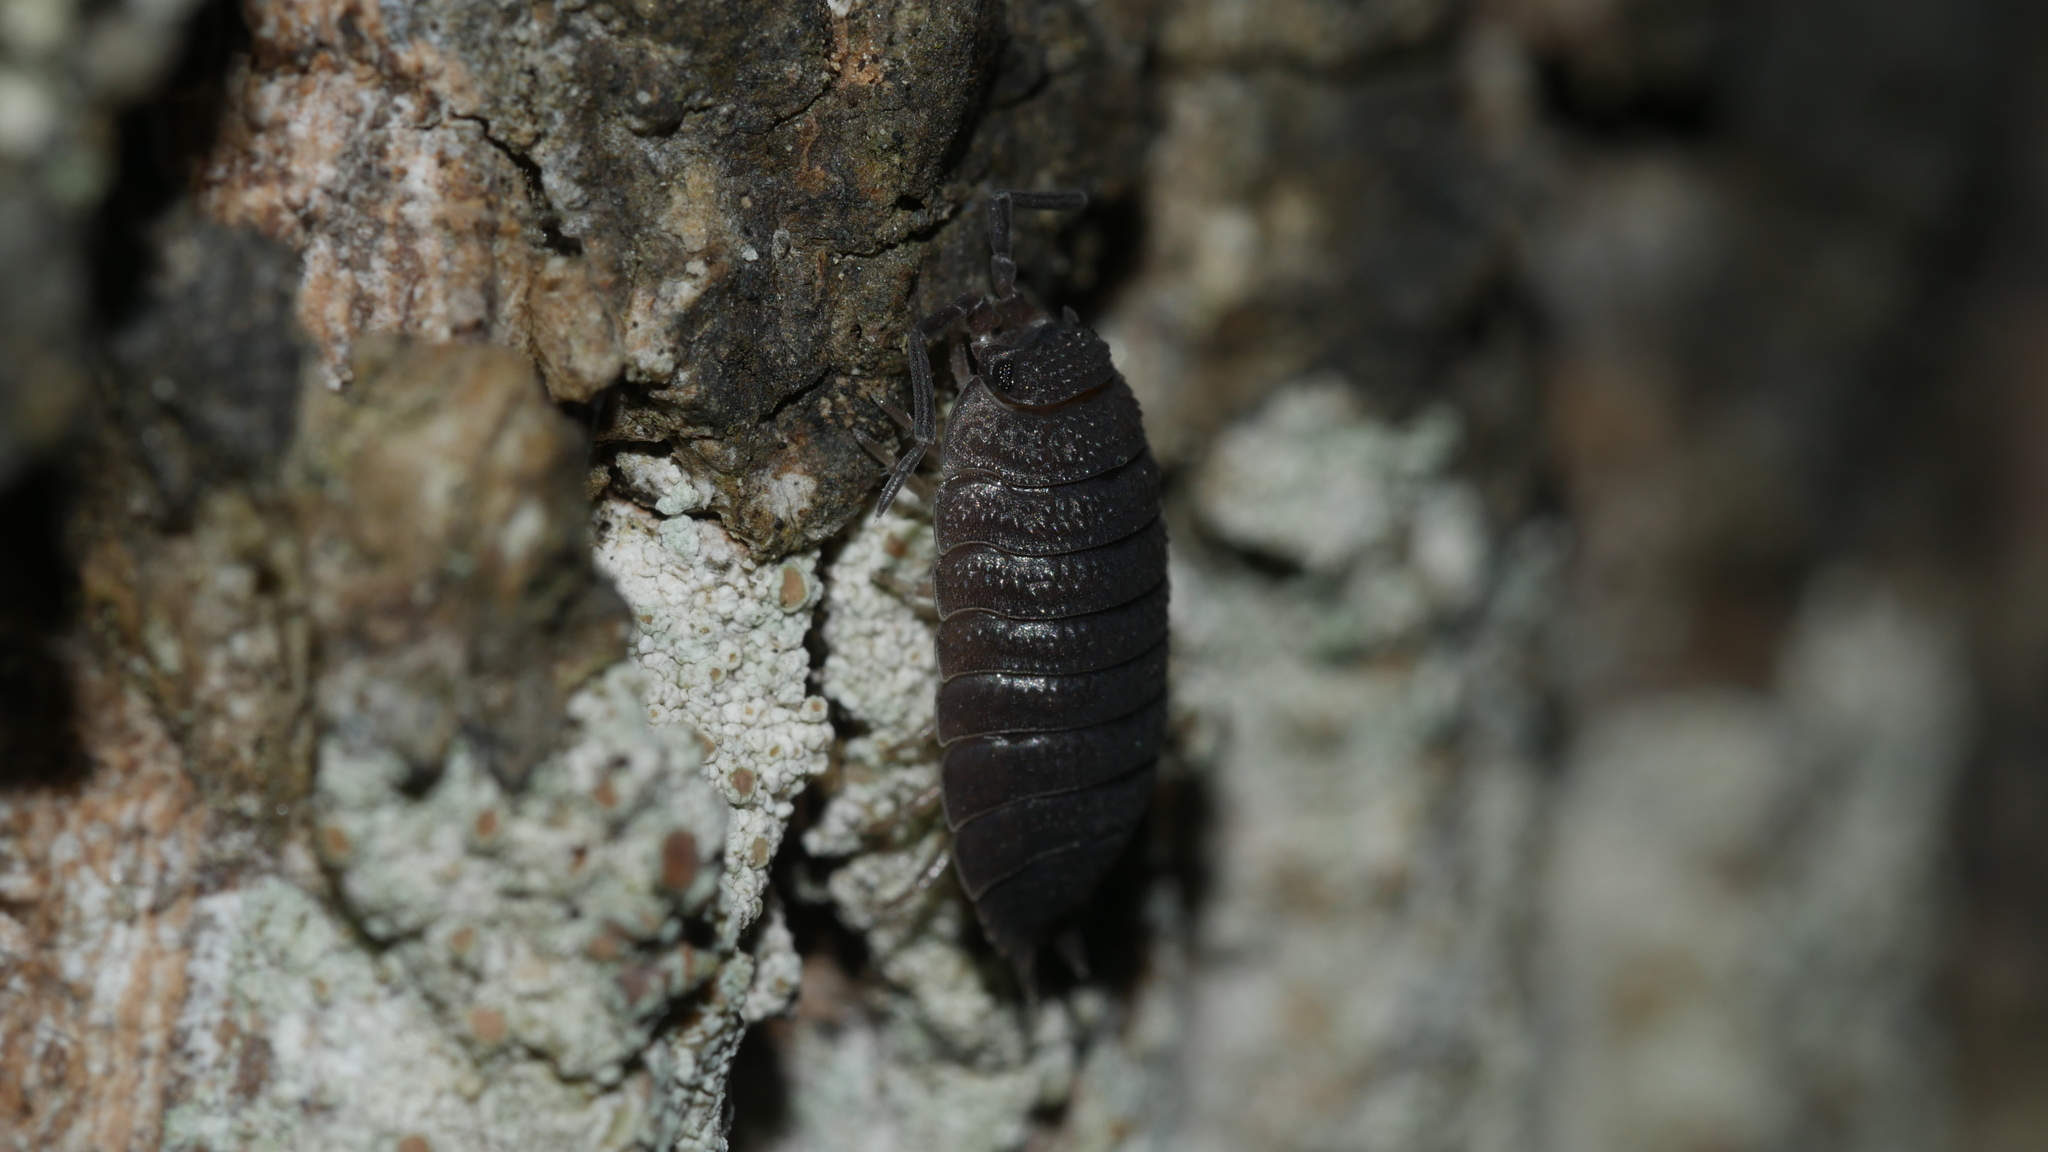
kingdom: Animalia
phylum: Arthropoda
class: Malacostraca
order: Isopoda
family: Porcellionidae
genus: Porcellio
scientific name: Porcellio scaber
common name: Common rough woodlouse
